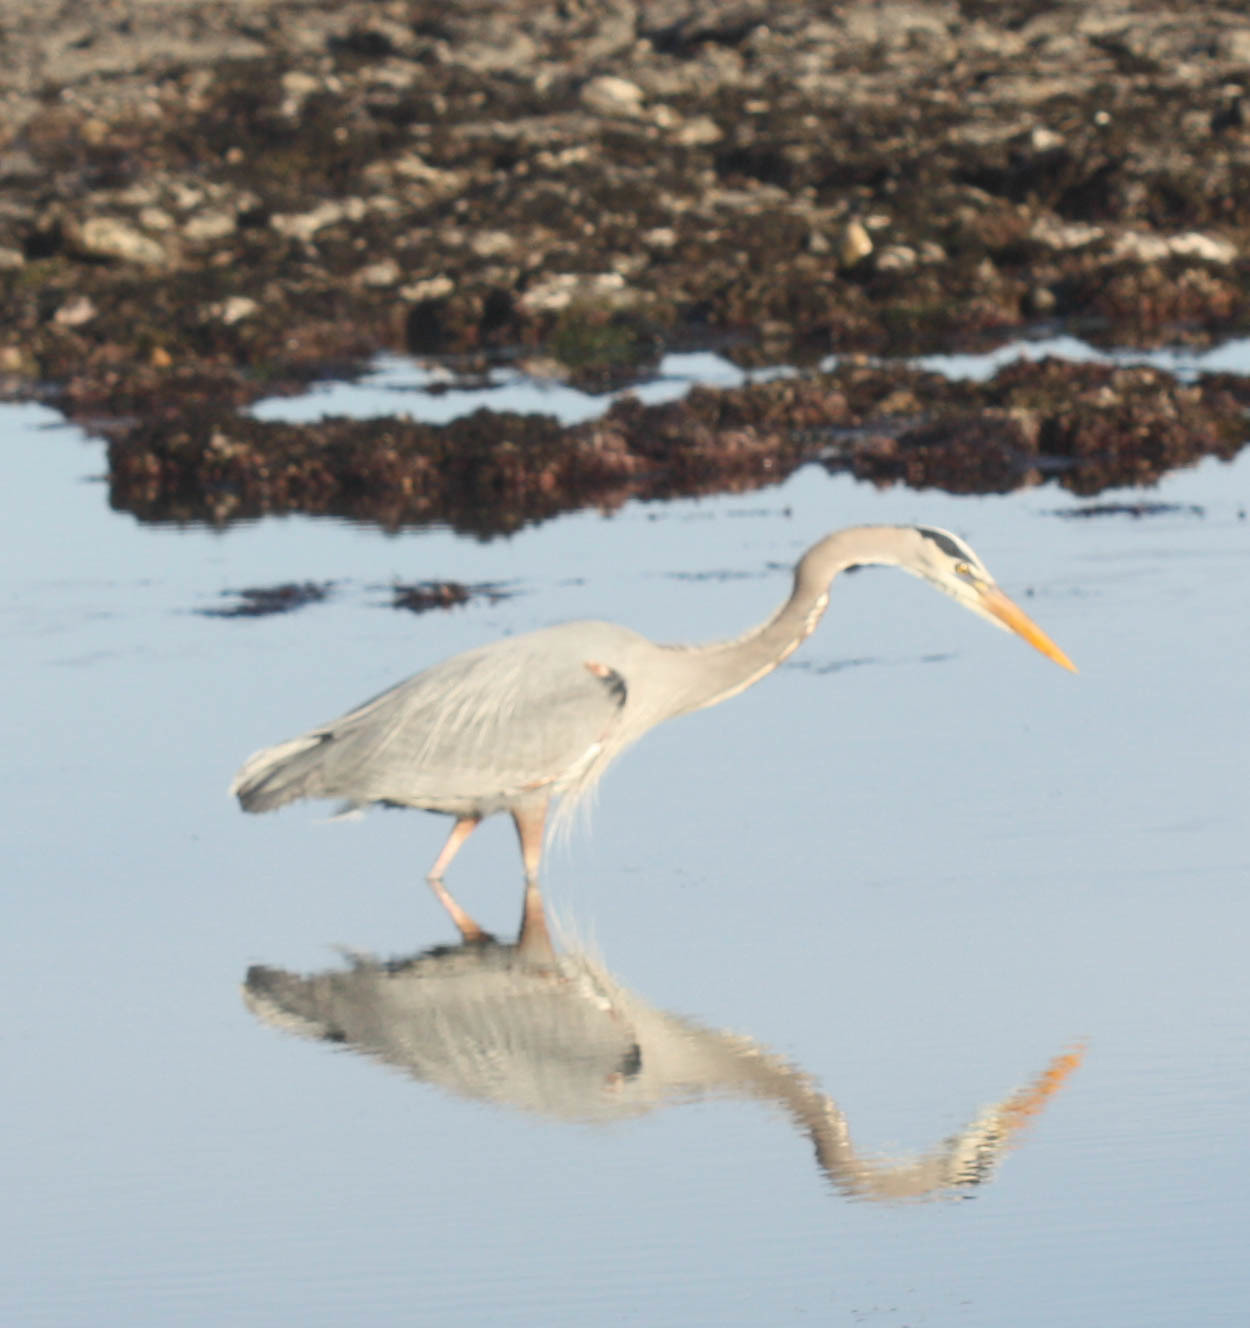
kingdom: Animalia
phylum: Chordata
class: Aves
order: Pelecaniformes
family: Ardeidae
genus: Ardea
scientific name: Ardea herodias
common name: Great blue heron
